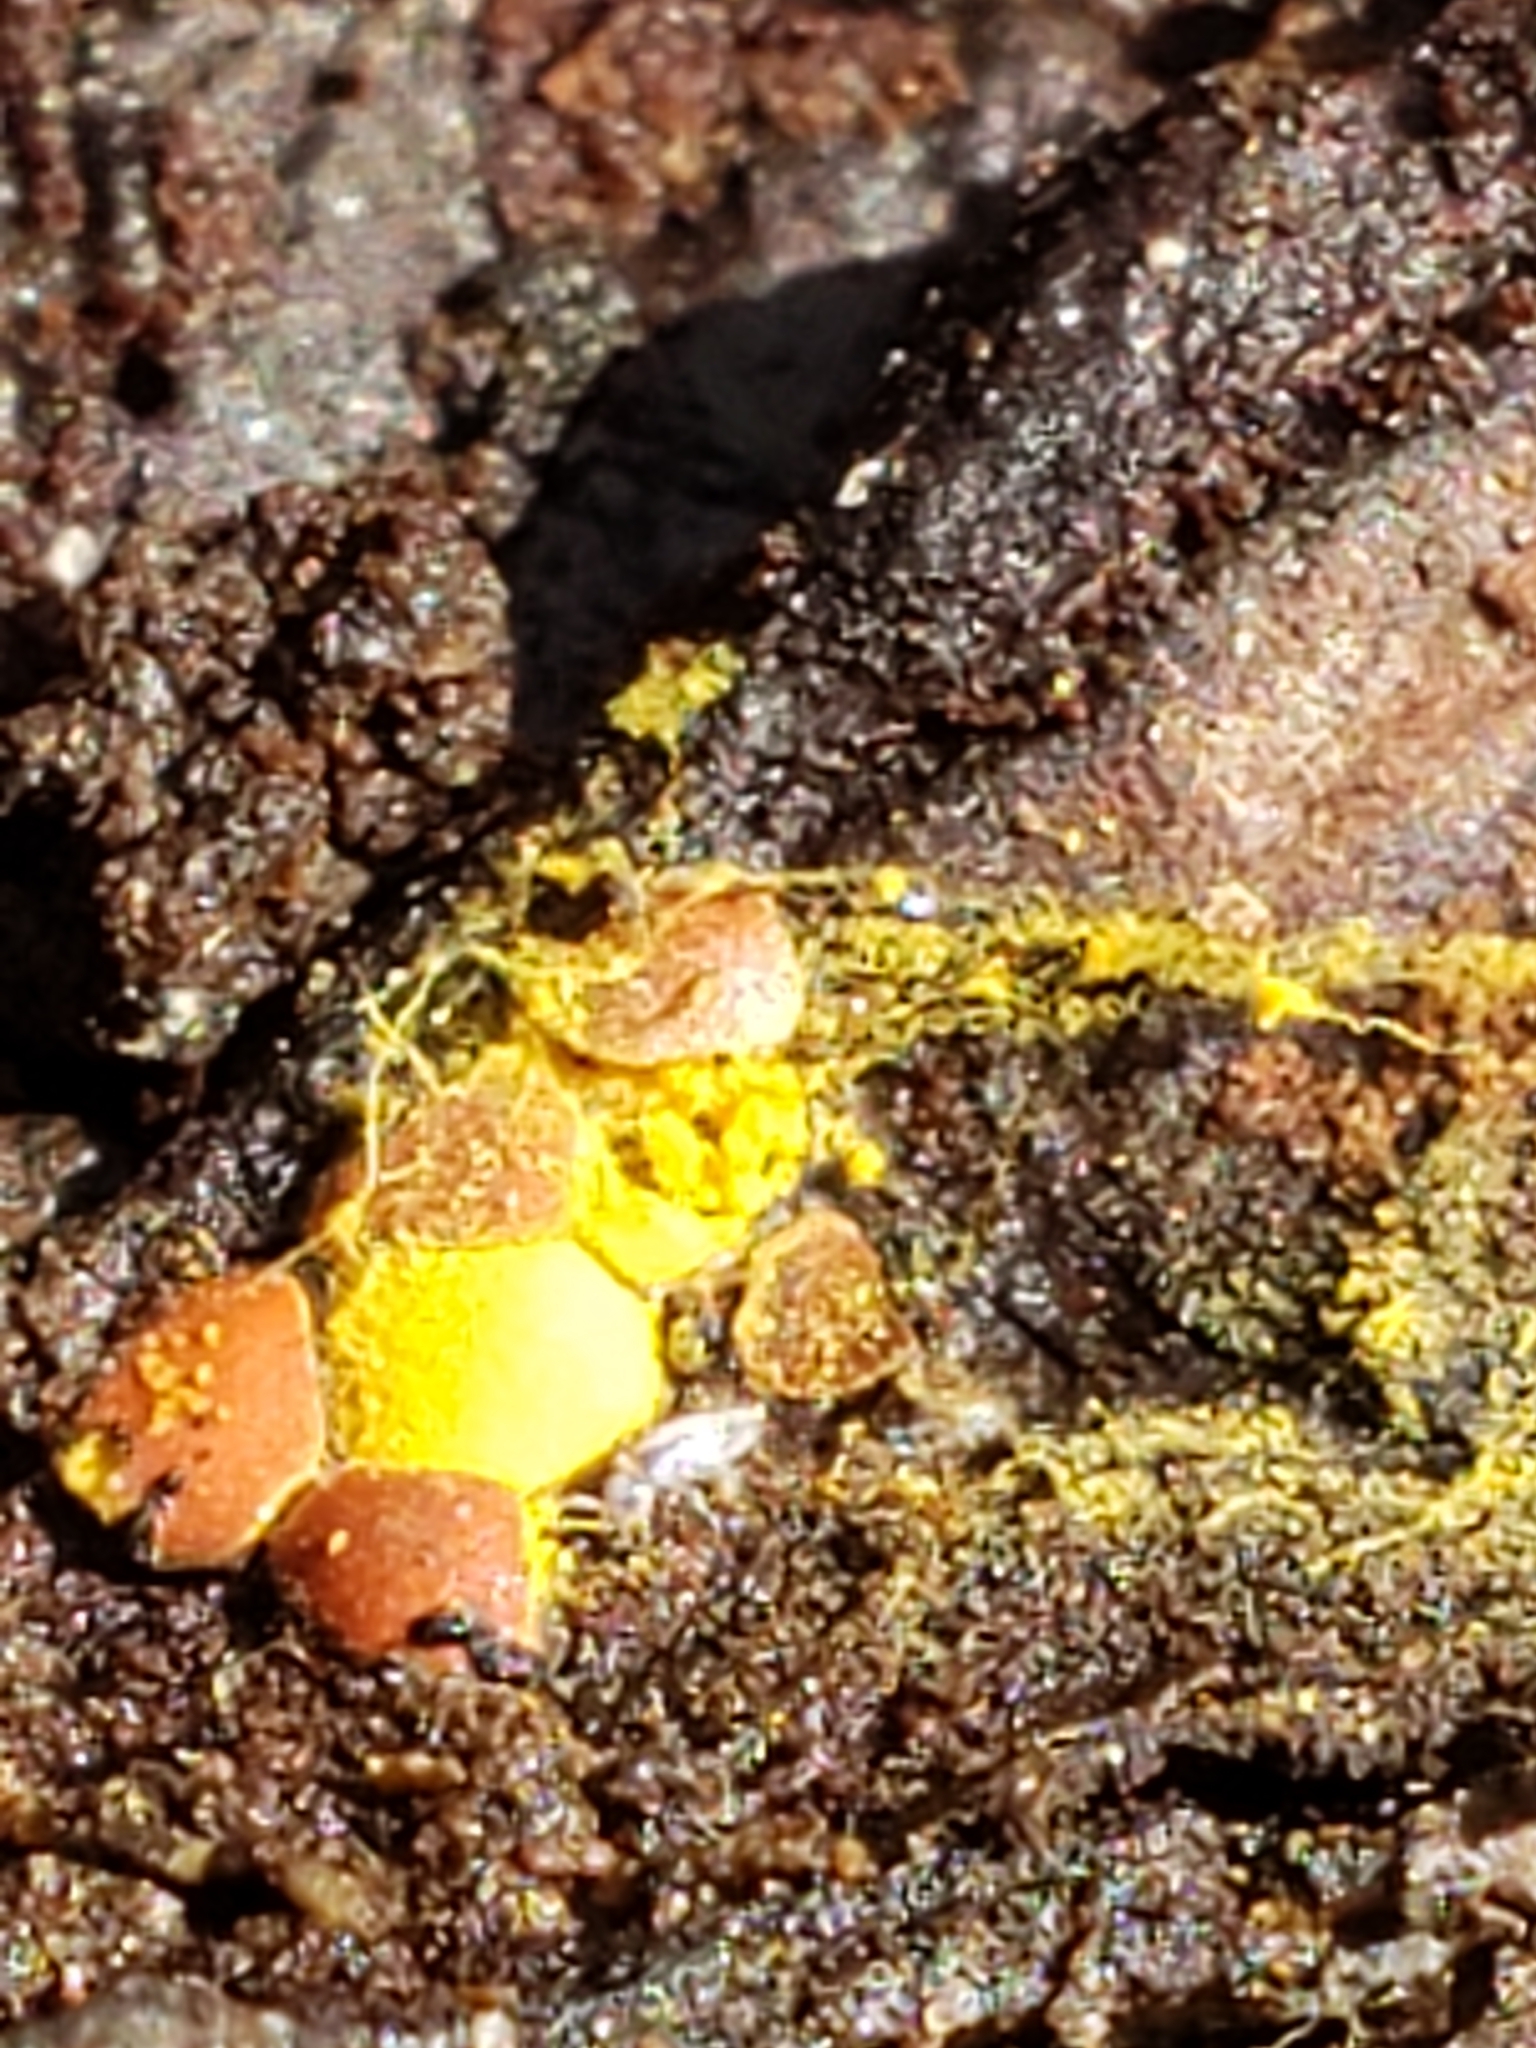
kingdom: Protozoa
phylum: Mycetozoa
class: Myxomycetes
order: Trichiales
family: Trichiaceae
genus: Perichaena
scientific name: Perichaena depressa
